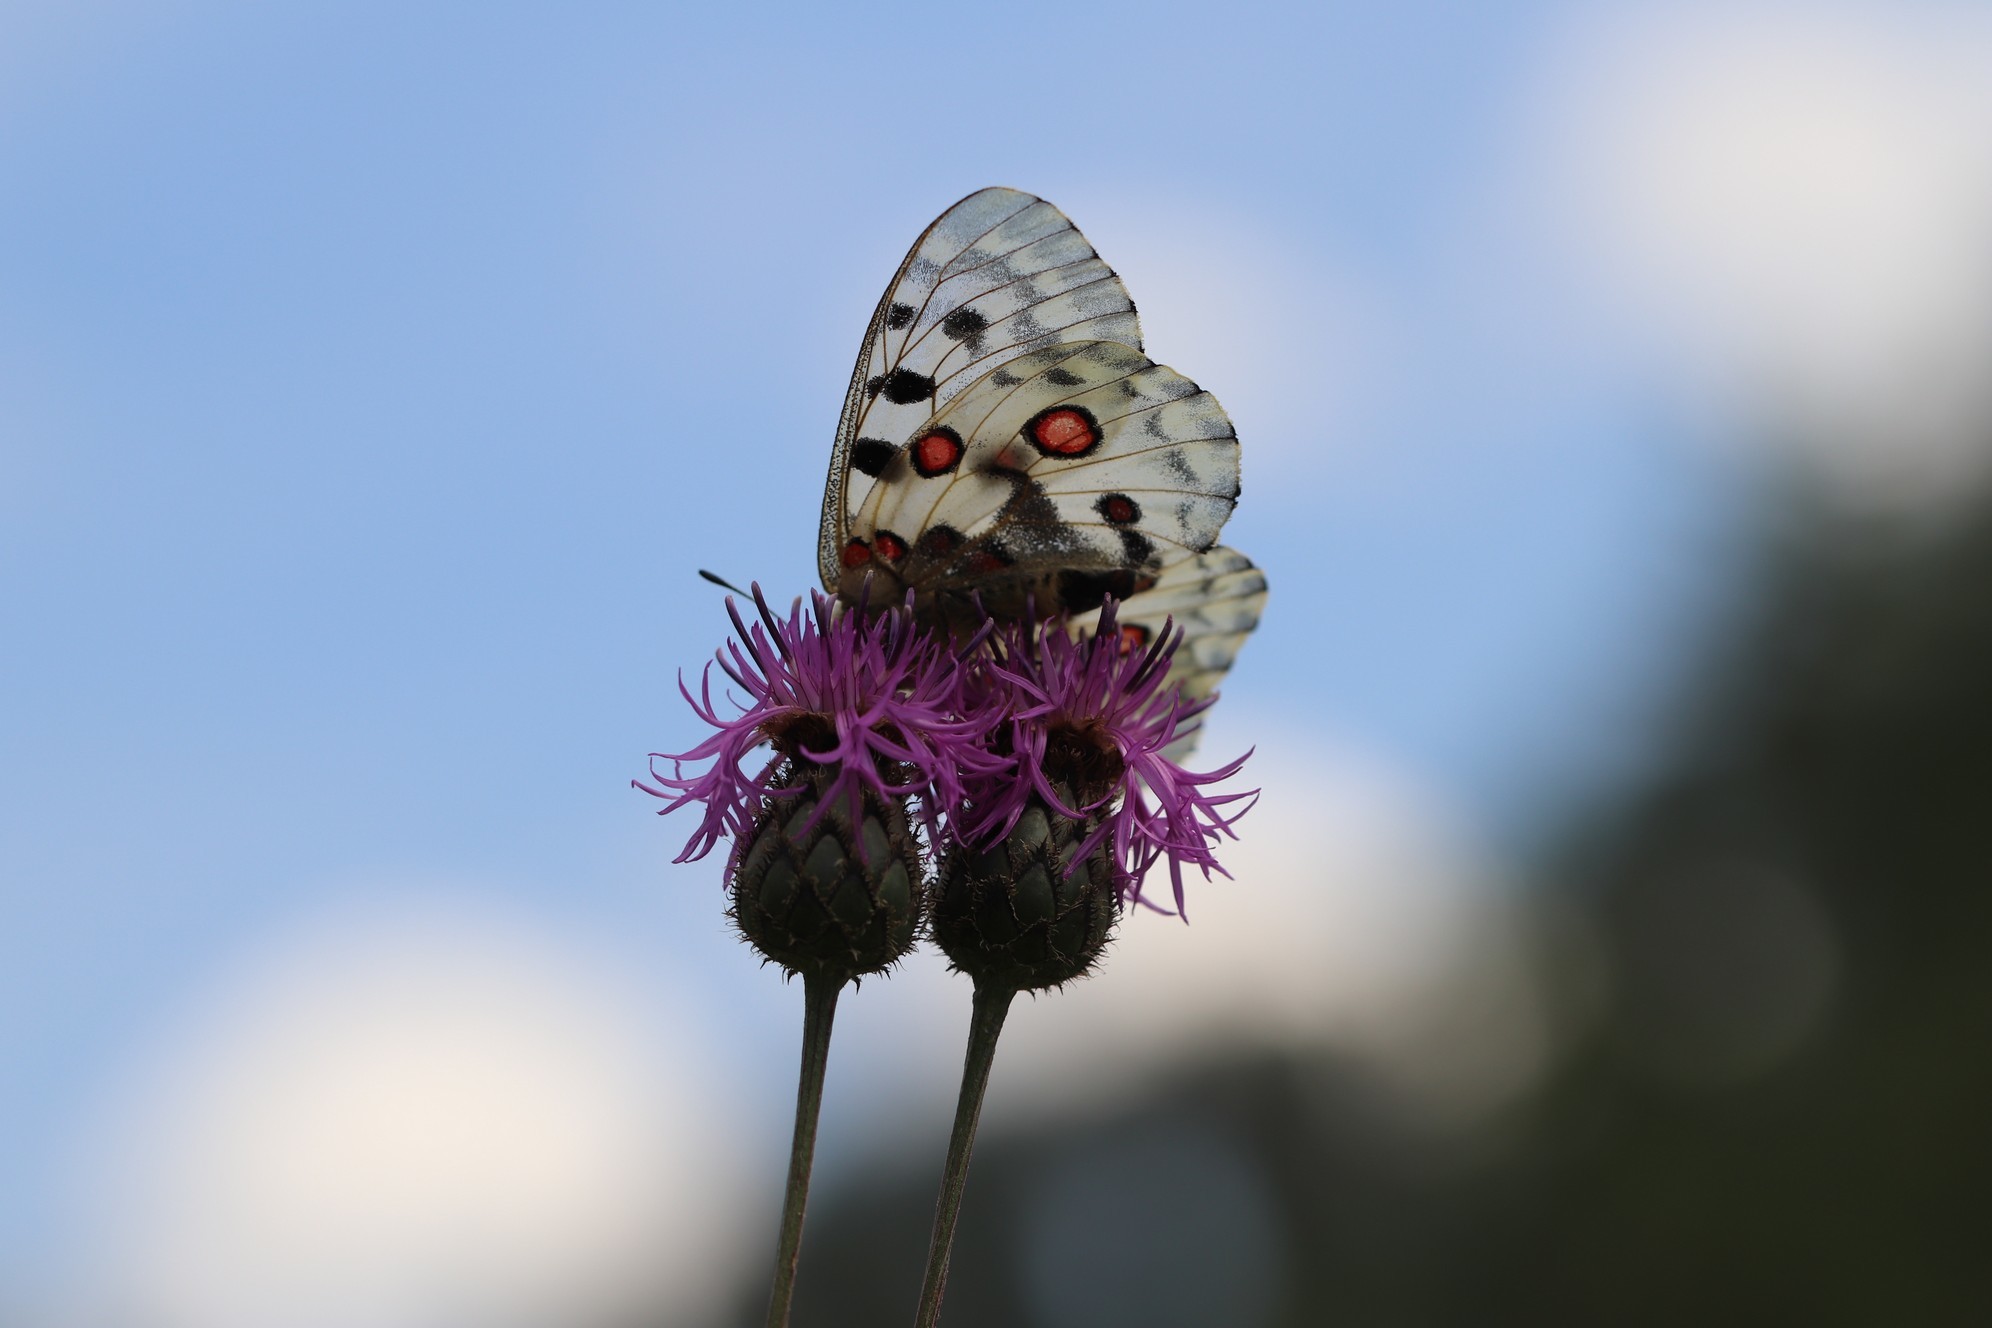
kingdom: Animalia
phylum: Arthropoda
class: Insecta
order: Lepidoptera
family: Papilionidae
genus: Parnassius
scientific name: Parnassius nomion
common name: Nomion apollo
